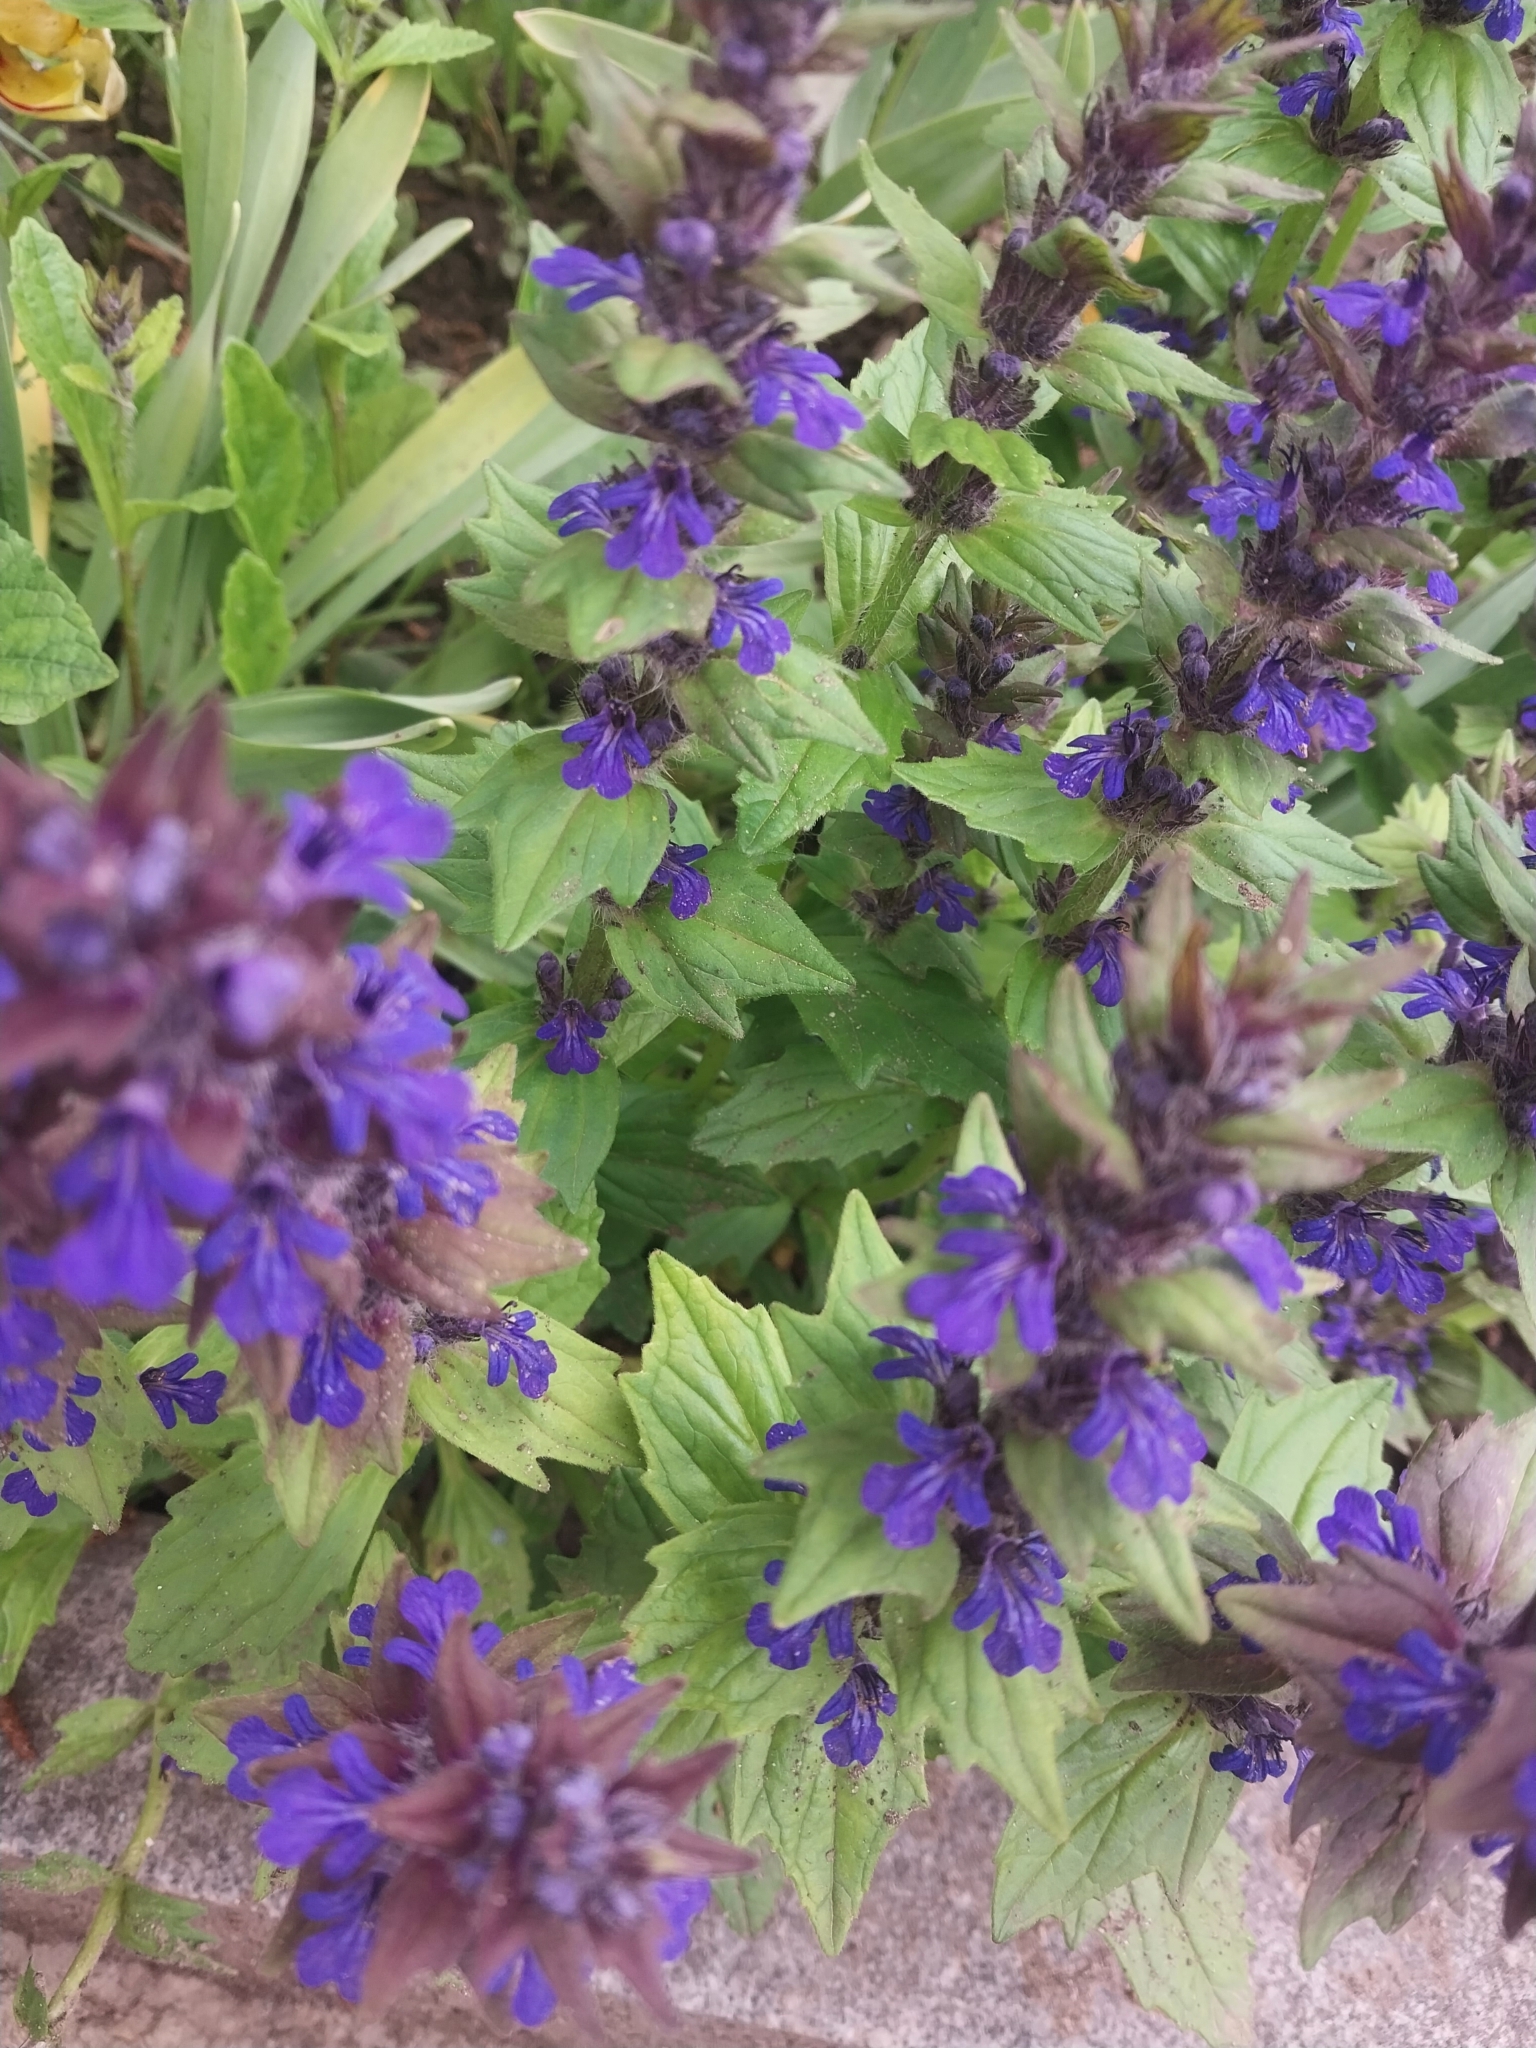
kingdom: Plantae
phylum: Tracheophyta
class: Magnoliopsida
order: Lamiales
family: Lamiaceae
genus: Ajuga
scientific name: Ajuga genevensis
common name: Blue bugle
